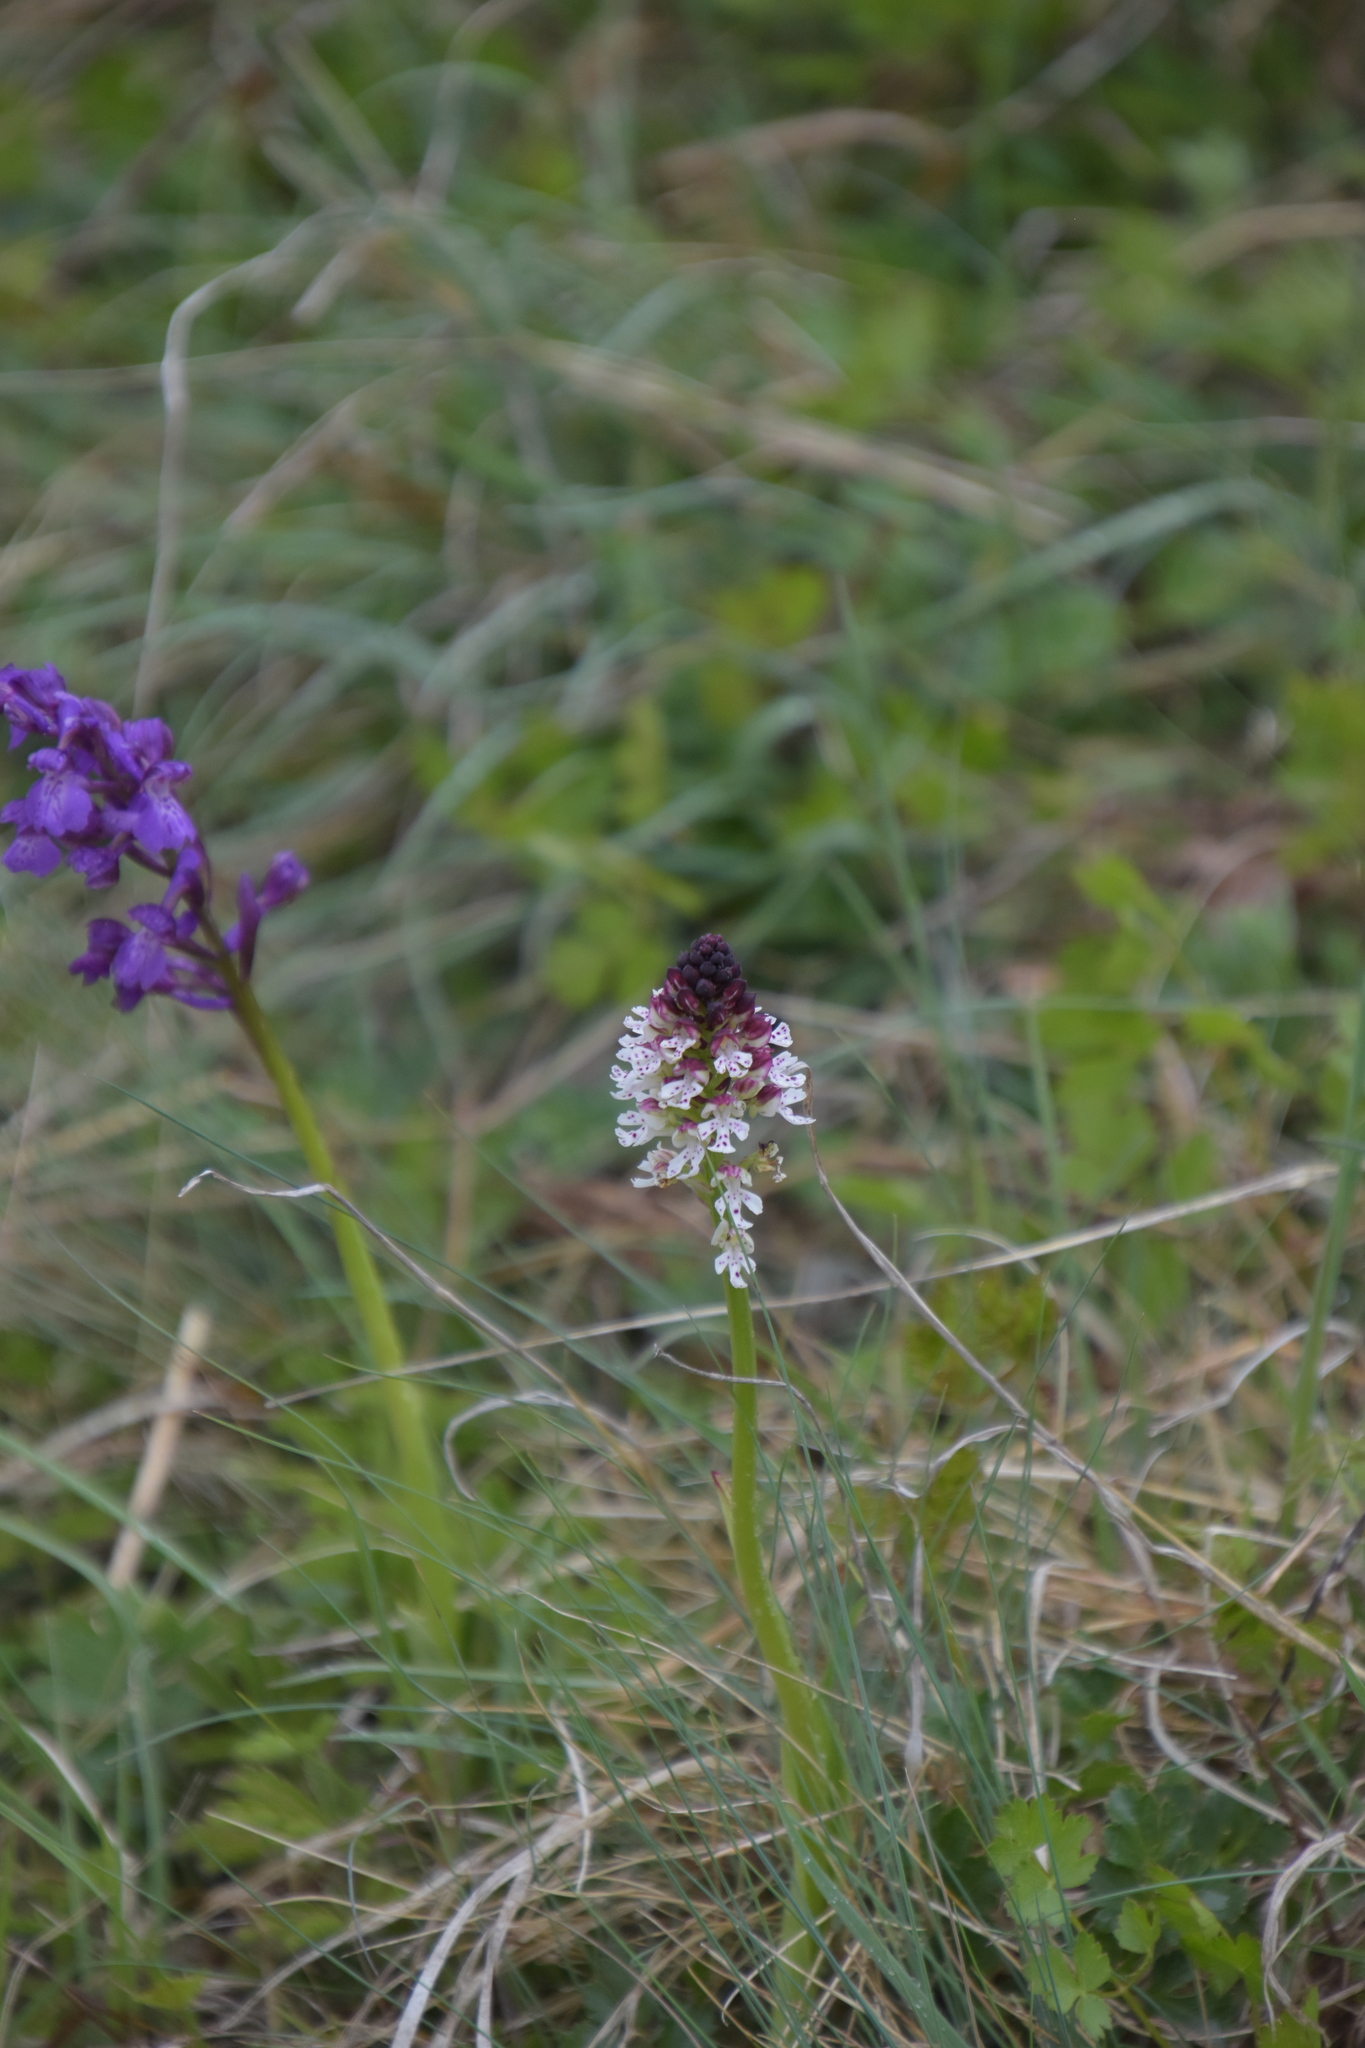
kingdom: Plantae
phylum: Tracheophyta
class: Liliopsida
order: Asparagales
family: Orchidaceae
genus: Neotinea
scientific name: Neotinea ustulata
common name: Burnt orchid
